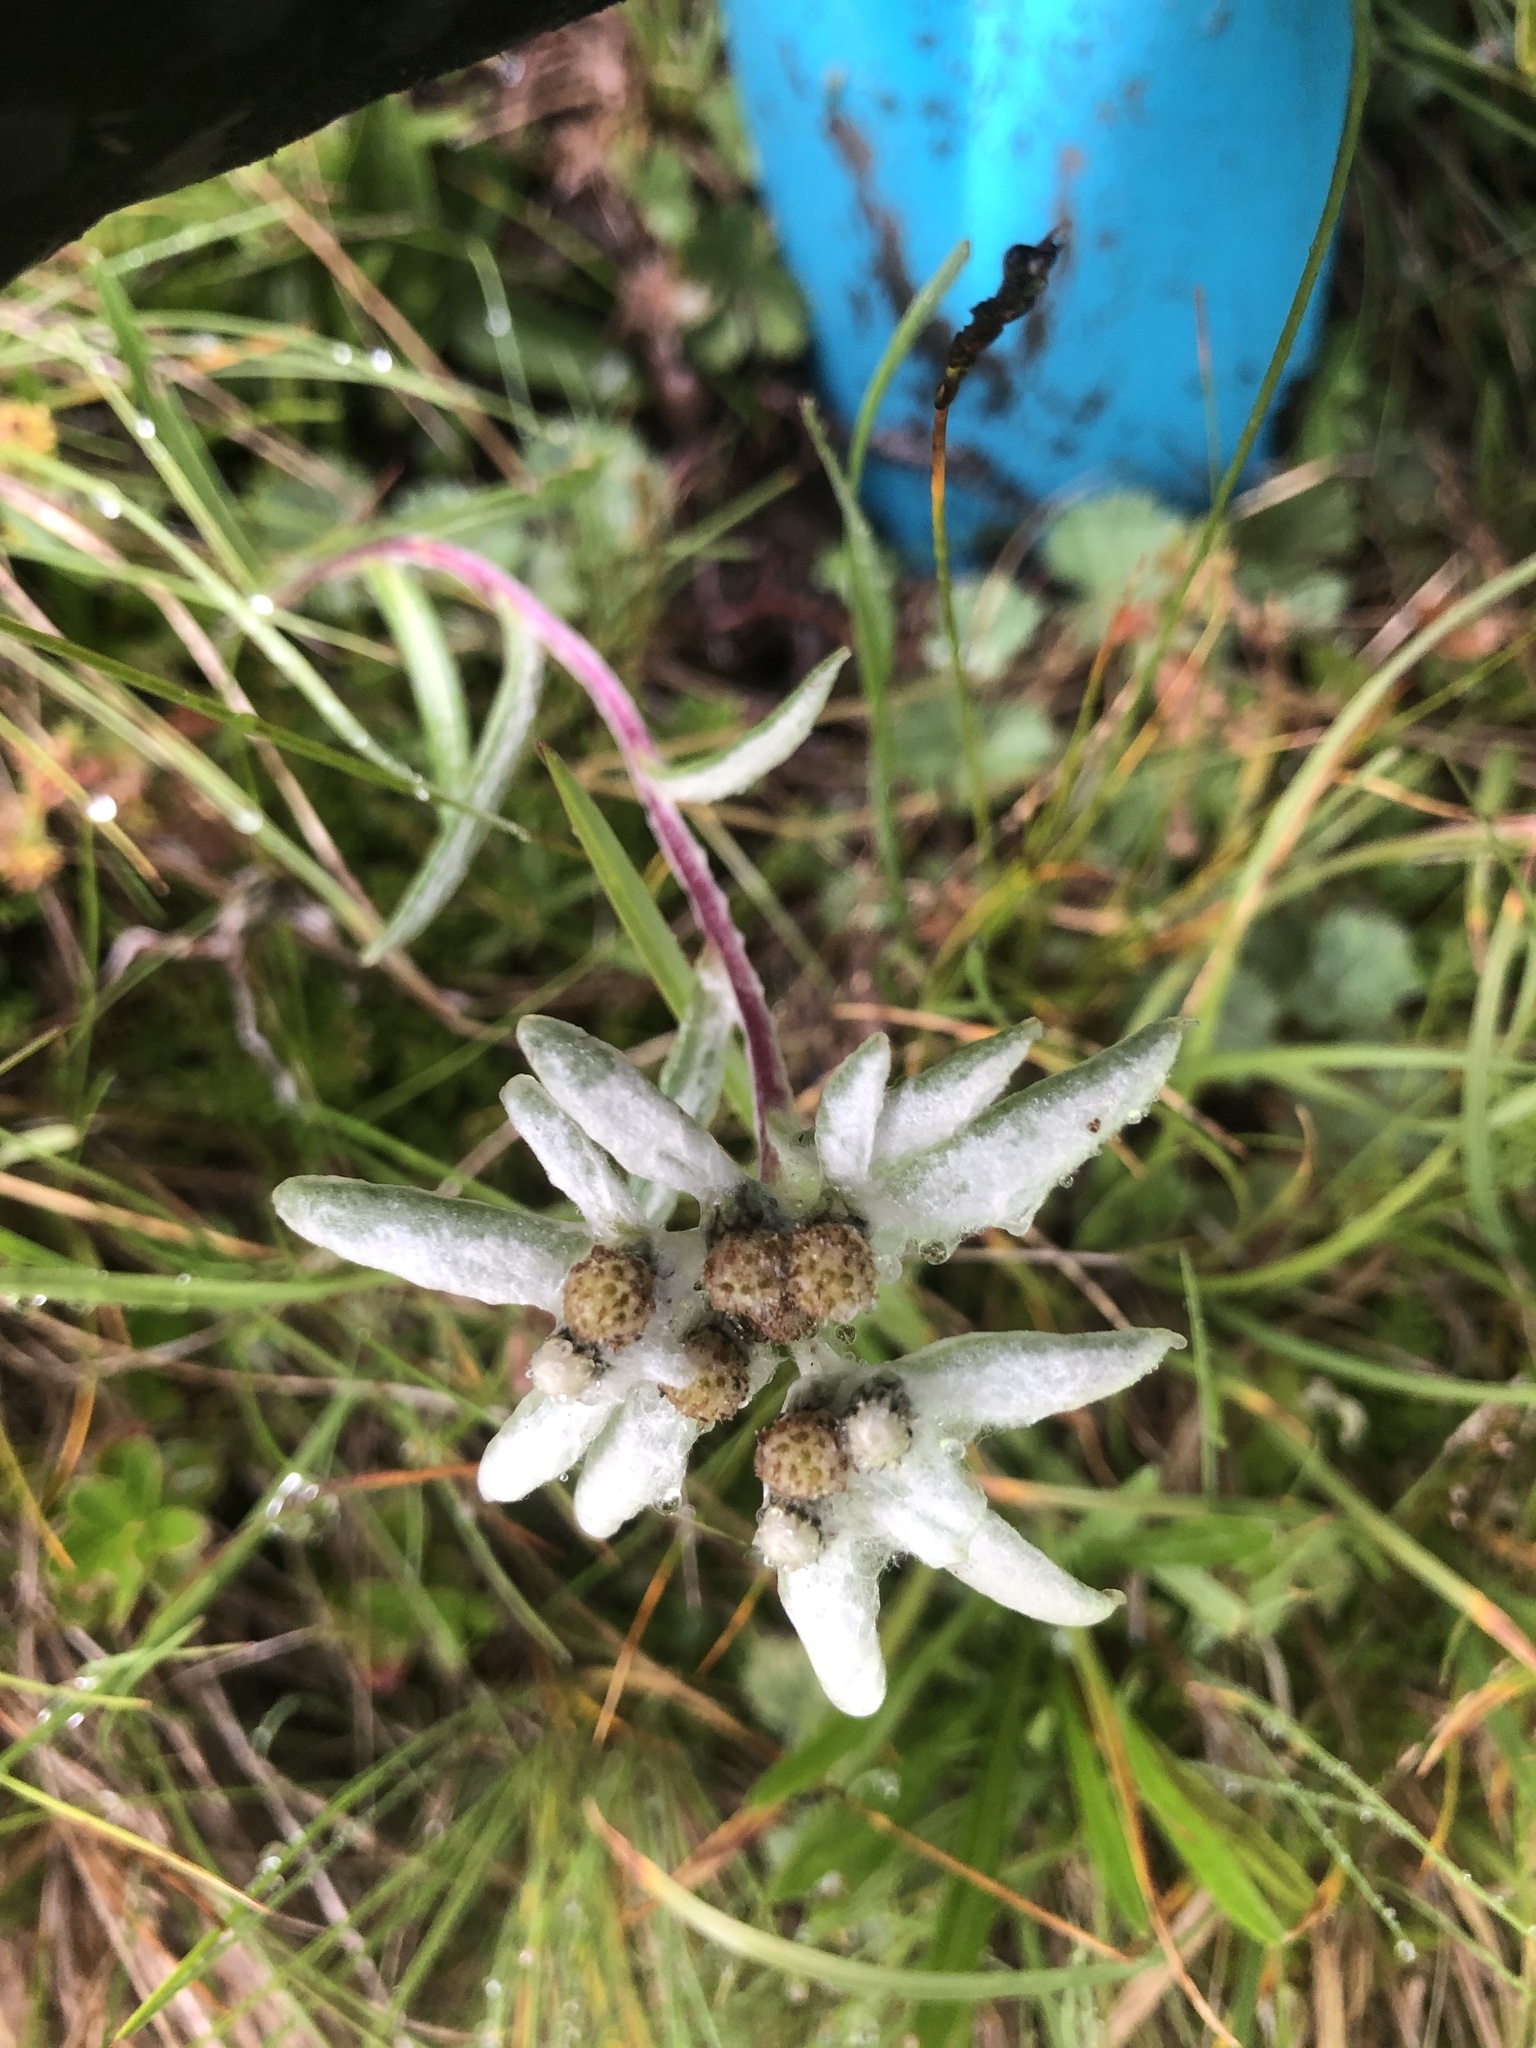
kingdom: Plantae
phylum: Tracheophyta
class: Magnoliopsida
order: Asterales
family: Asteraceae
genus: Leontopodium
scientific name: Leontopodium nivale
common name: Edelweiss
